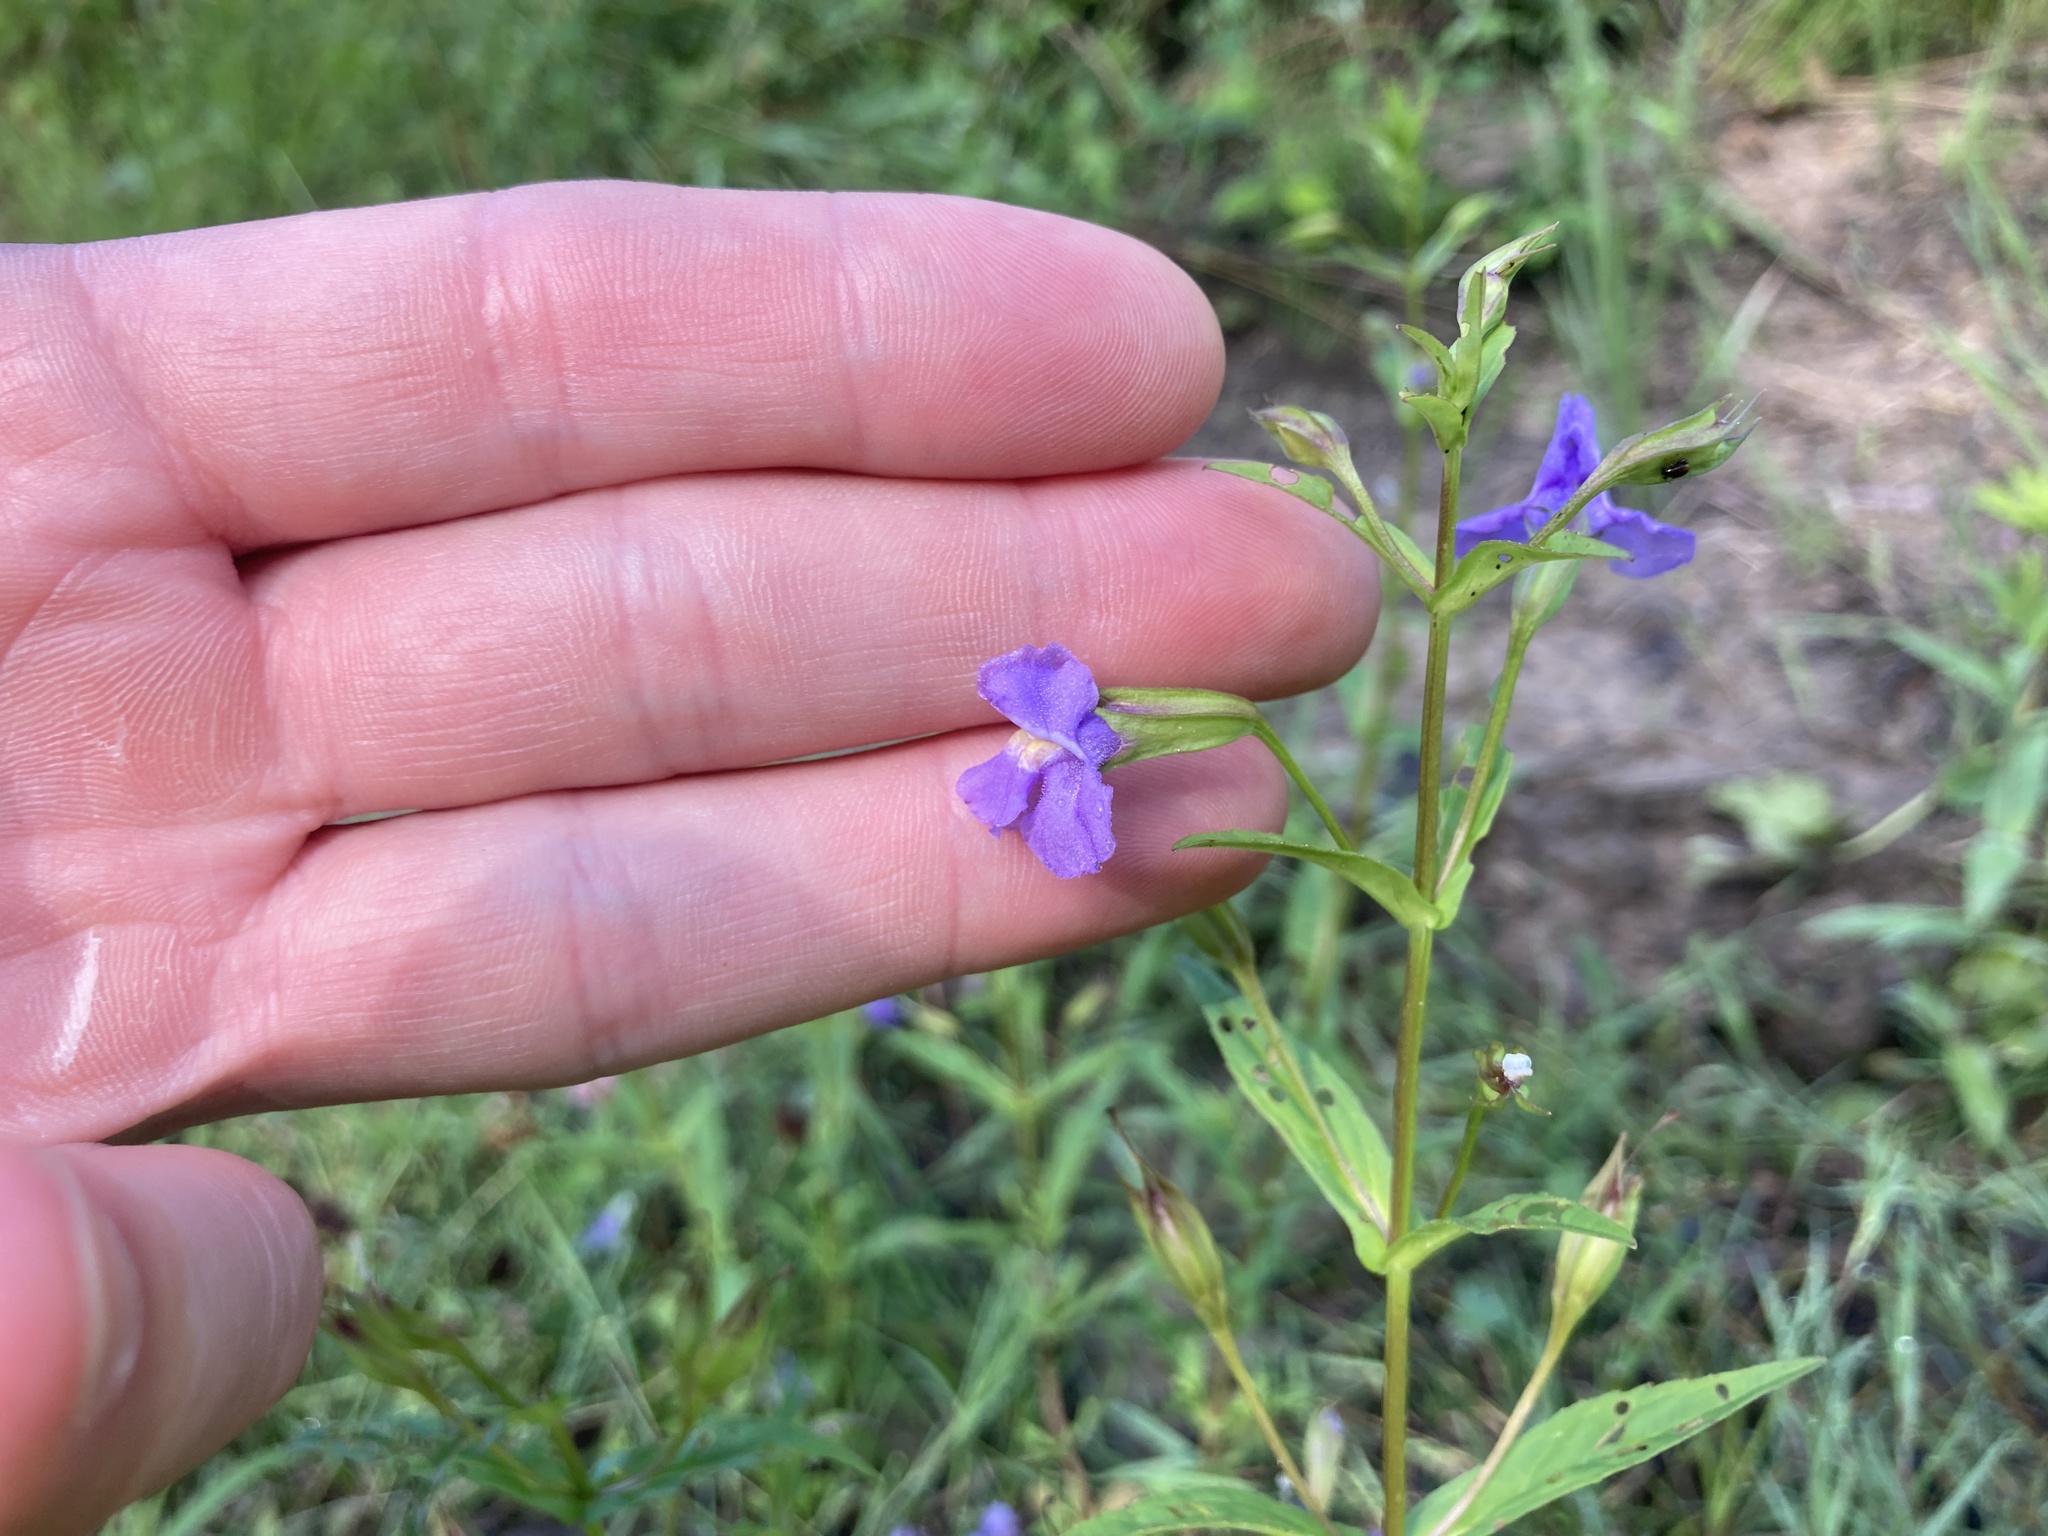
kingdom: Plantae
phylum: Tracheophyta
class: Magnoliopsida
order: Lamiales
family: Phrymaceae
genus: Mimulus
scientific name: Mimulus ringens
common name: Allegheny monkeyflower
